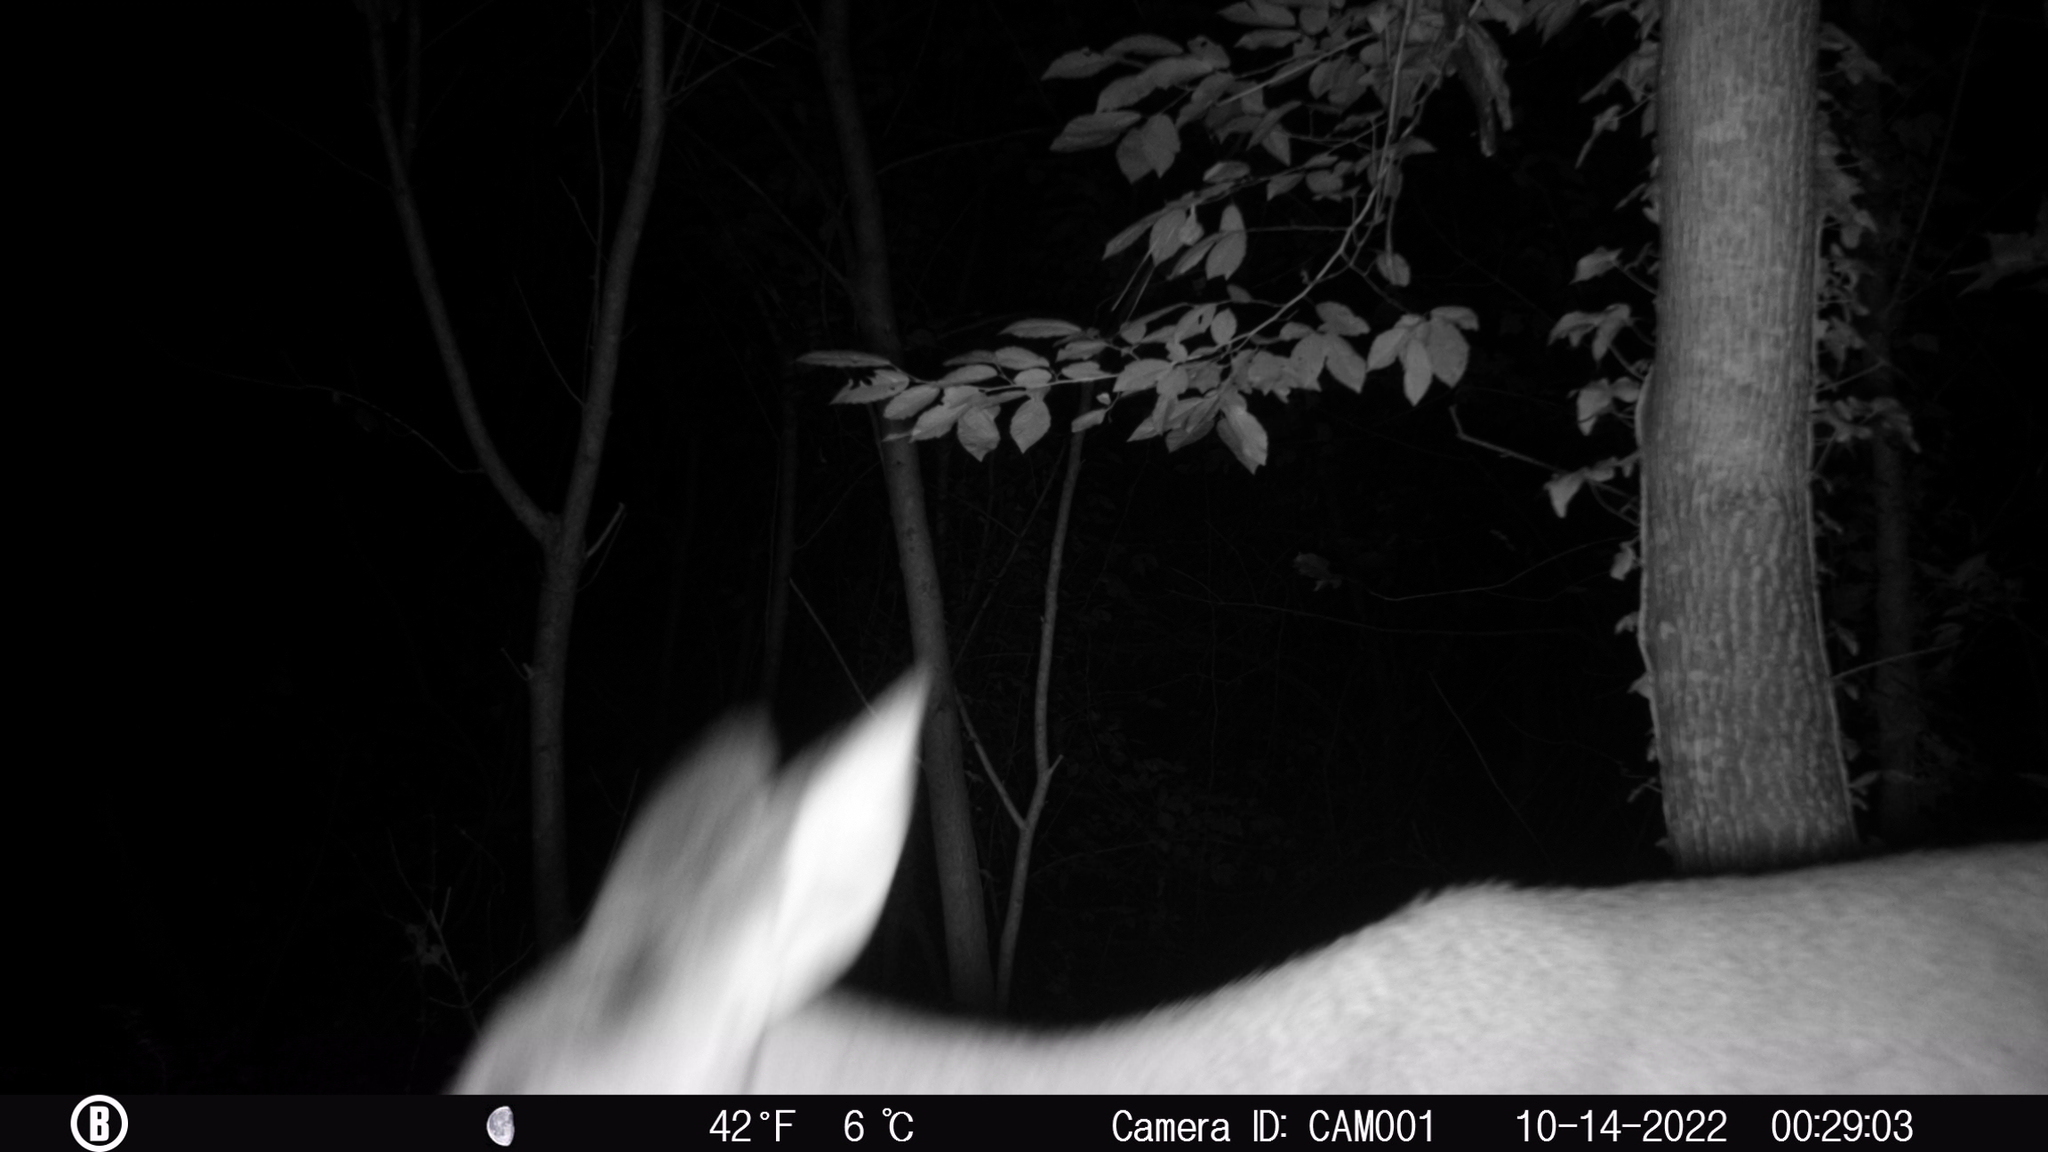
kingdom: Animalia
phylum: Chordata
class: Mammalia
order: Artiodactyla
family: Cervidae
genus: Odocoileus
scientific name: Odocoileus virginianus
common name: White-tailed deer
